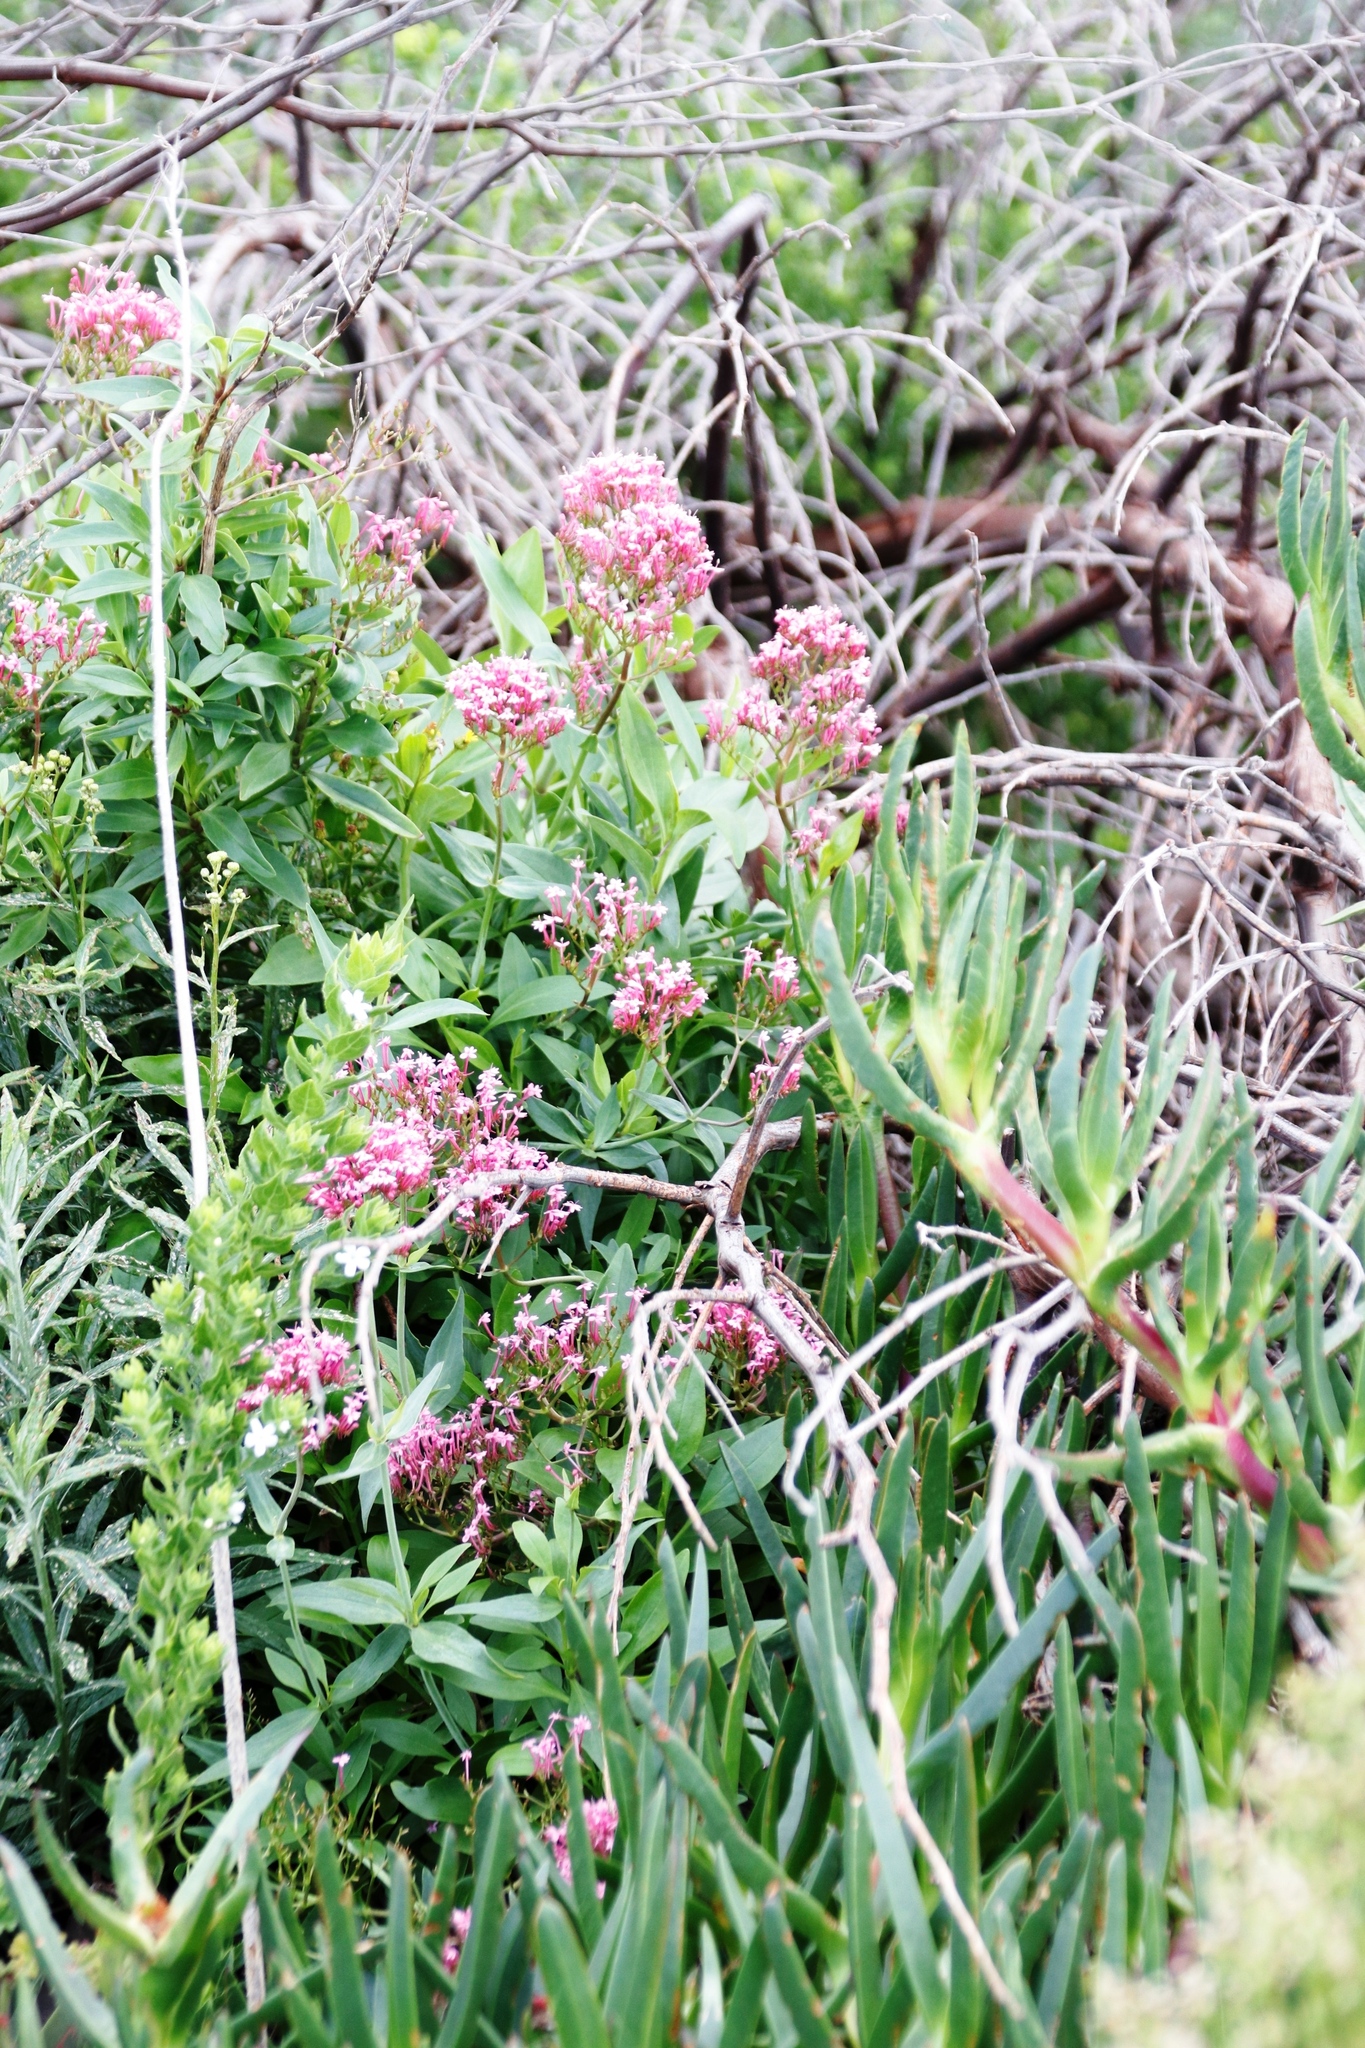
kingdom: Plantae
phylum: Tracheophyta
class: Magnoliopsida
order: Dipsacales
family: Caprifoliaceae
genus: Centranthus
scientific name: Centranthus ruber
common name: Red valerian
